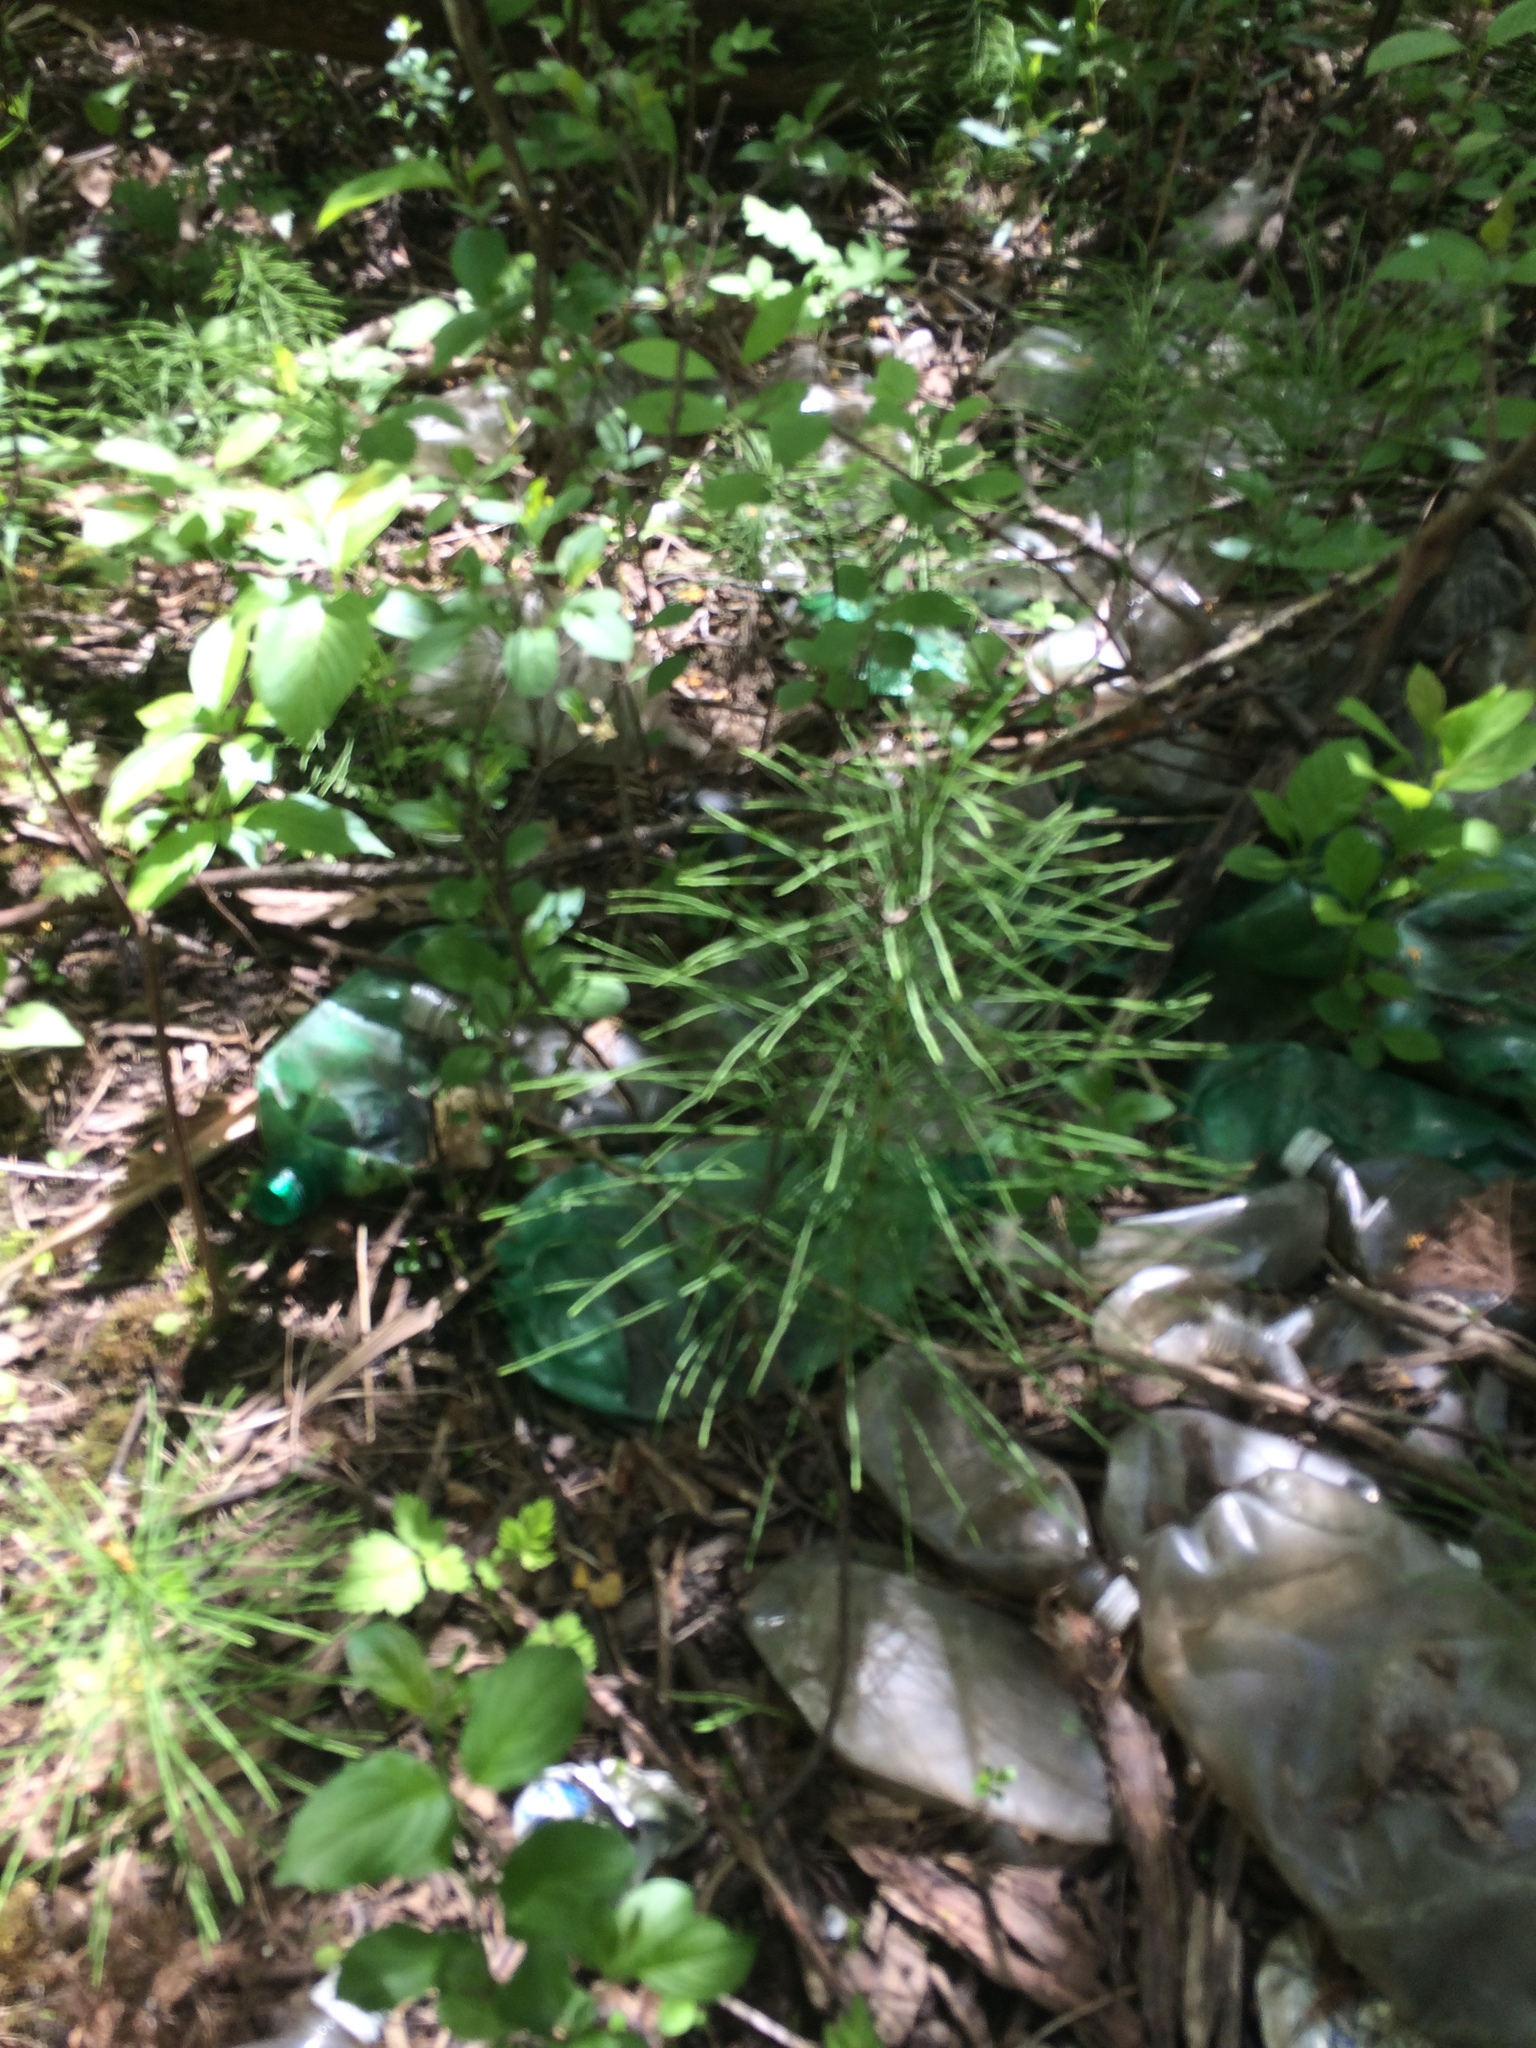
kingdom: Plantae
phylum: Tracheophyta
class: Polypodiopsida
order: Equisetales
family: Equisetaceae
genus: Equisetum
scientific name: Equisetum arvense
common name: Field horsetail
